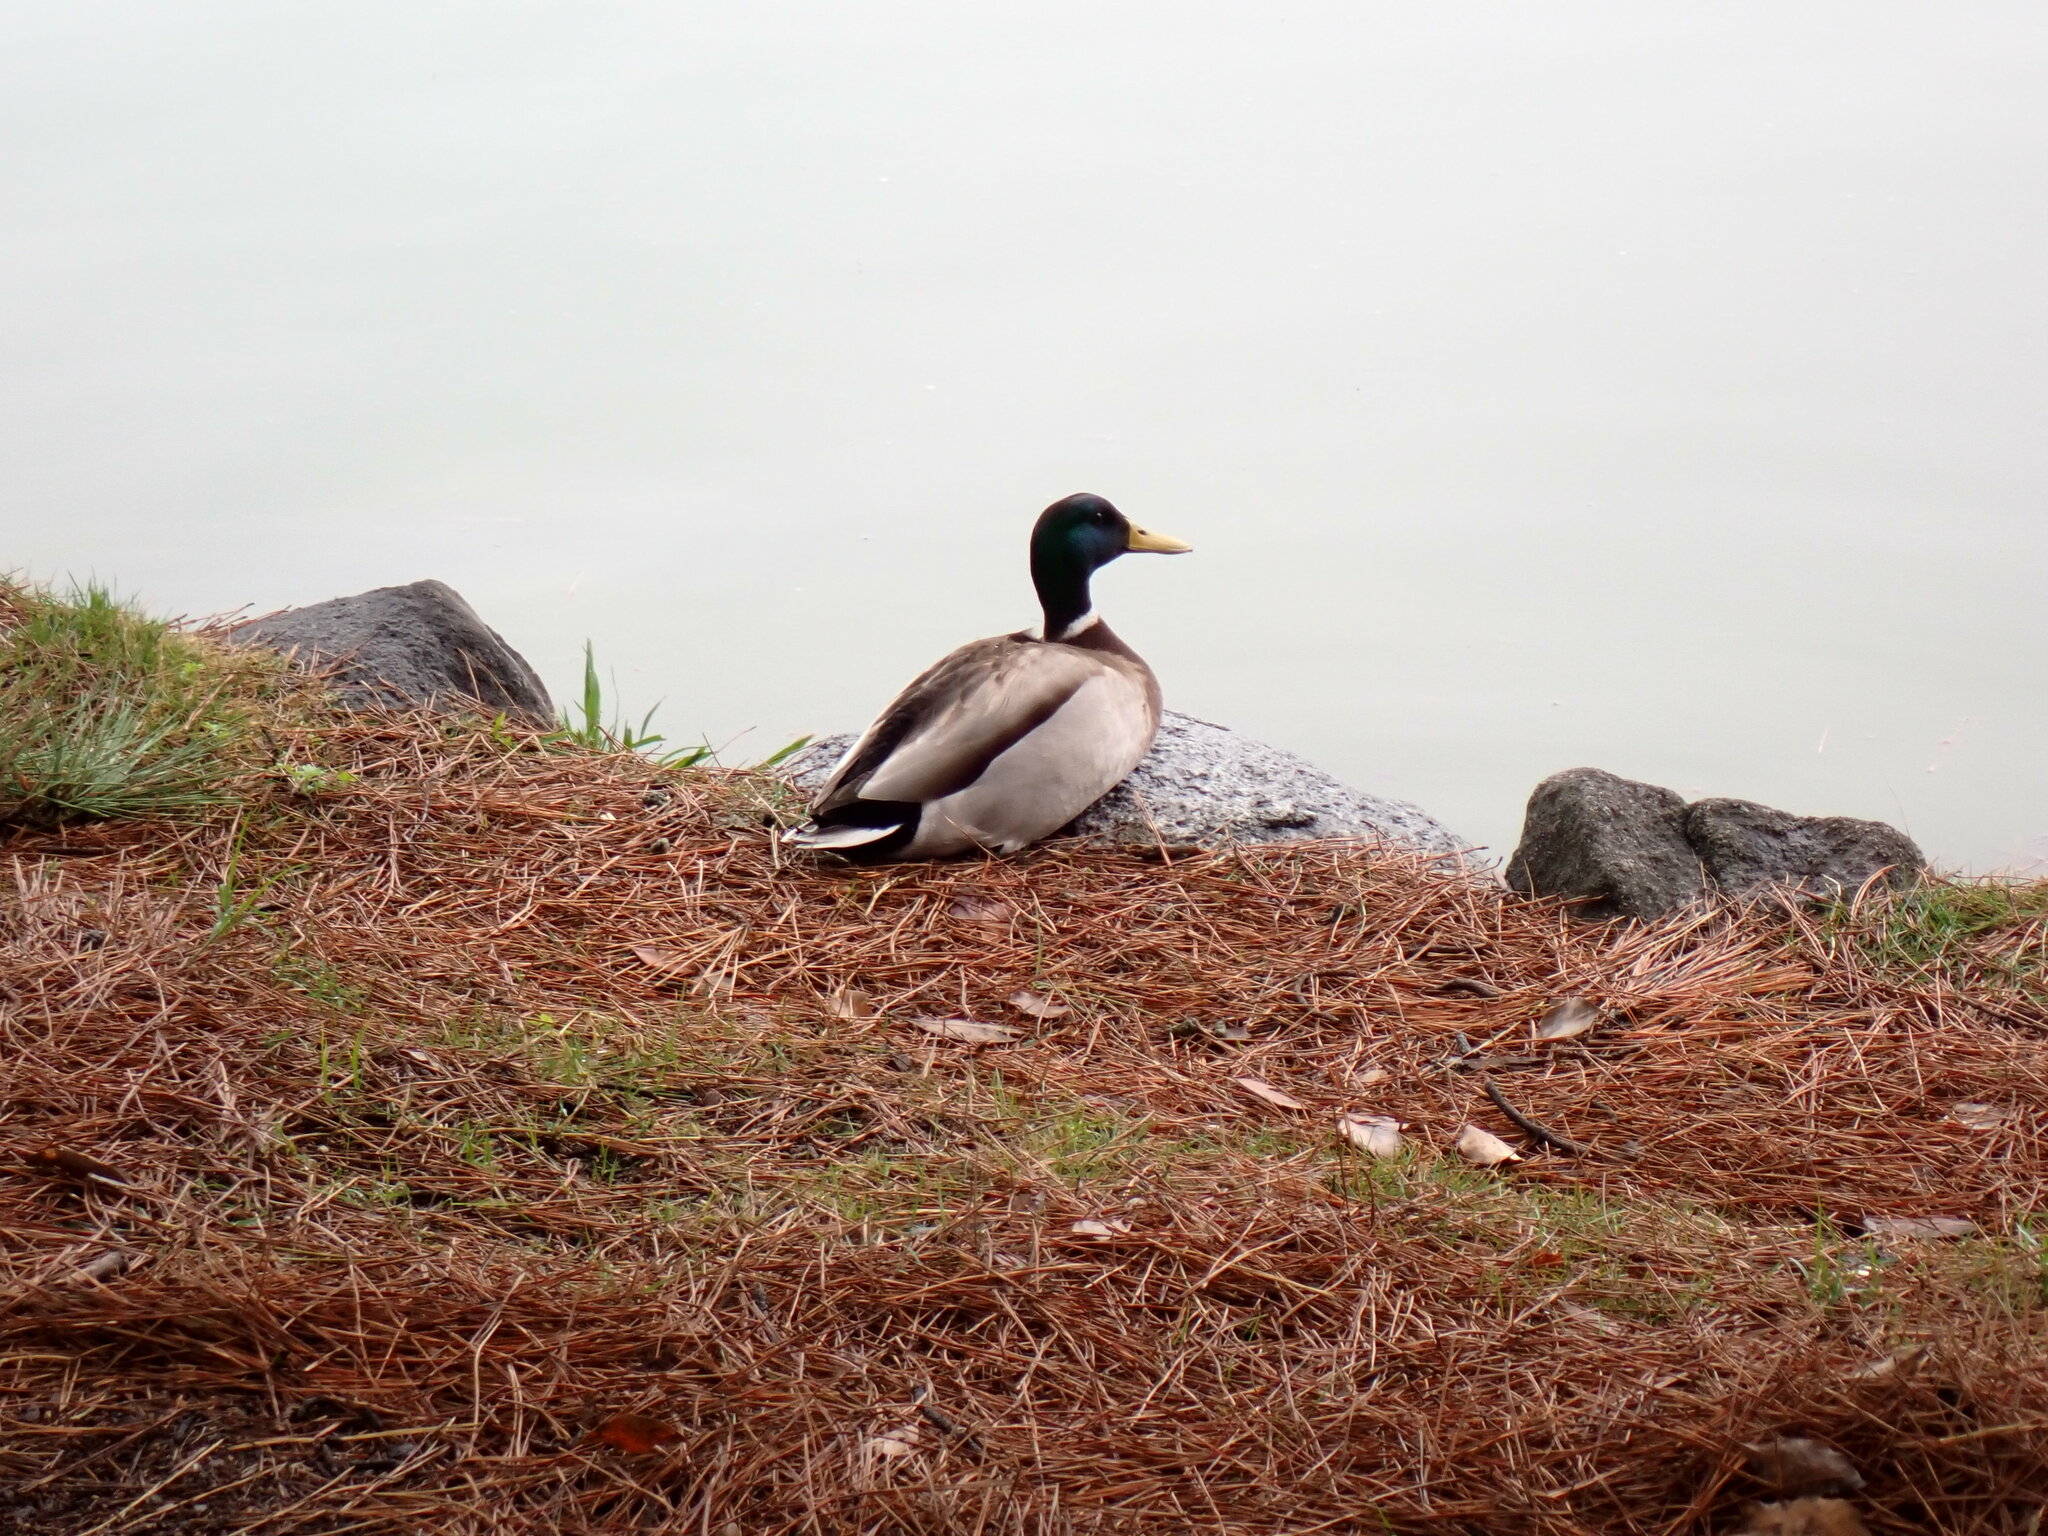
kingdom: Animalia
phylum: Chordata
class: Aves
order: Anseriformes
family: Anatidae
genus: Anas
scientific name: Anas platyrhynchos
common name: Mallard
